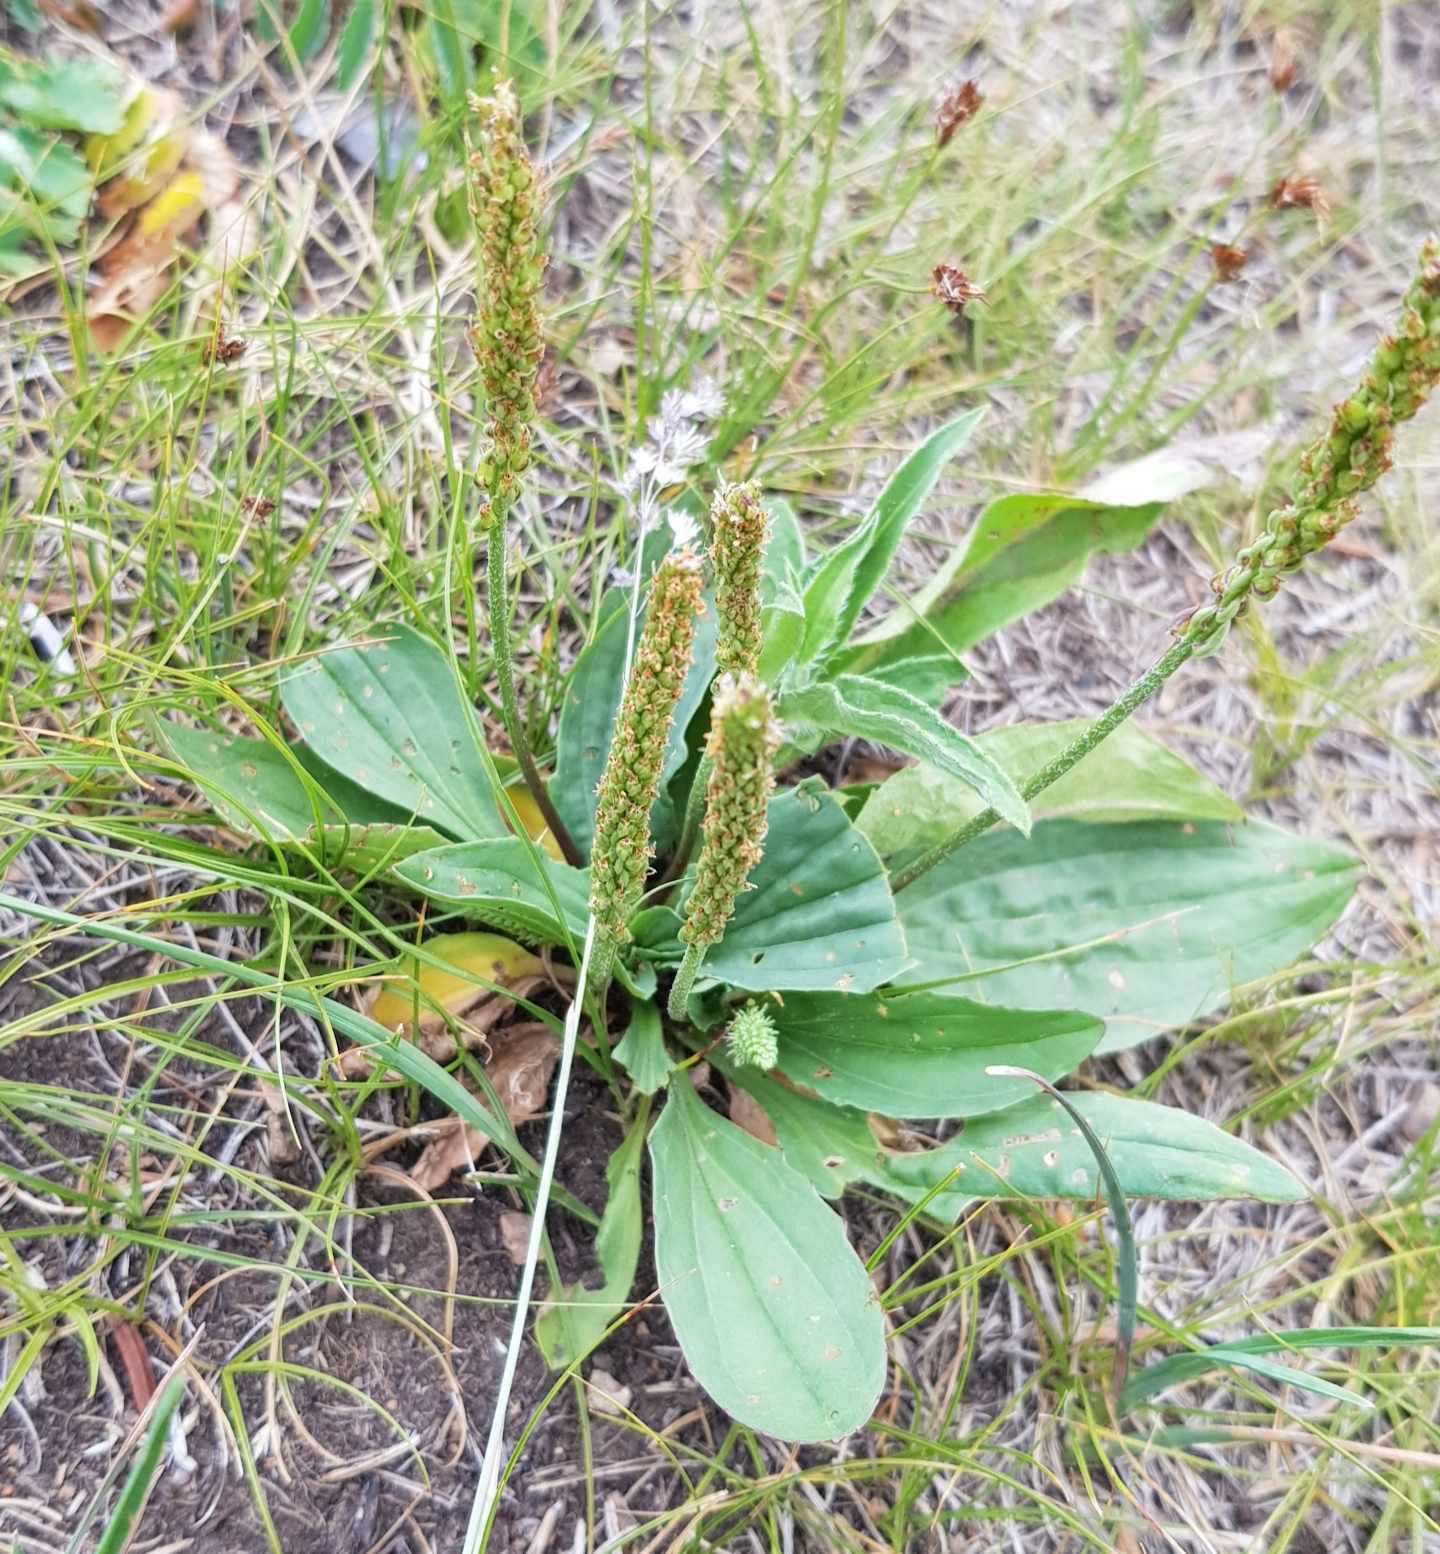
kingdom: Plantae
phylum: Tracheophyta
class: Magnoliopsida
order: Lamiales
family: Plantaginaceae
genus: Plantago
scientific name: Plantago depressa
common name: Depressed plantain
